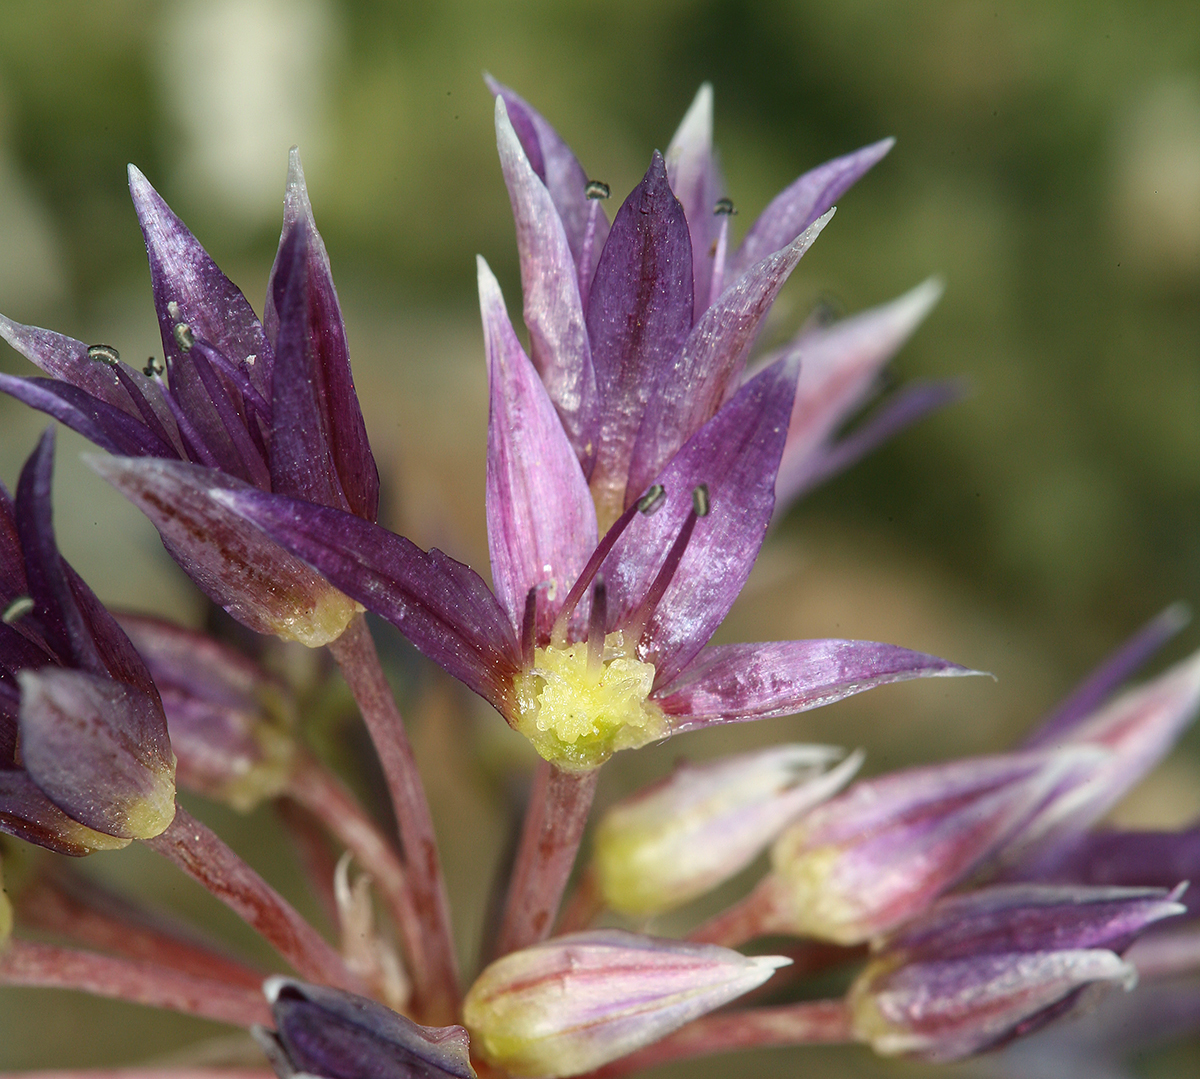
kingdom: Plantae
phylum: Tracheophyta
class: Liliopsida
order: Asparagales
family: Amaryllidaceae
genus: Allium
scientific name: Allium atrorubens
